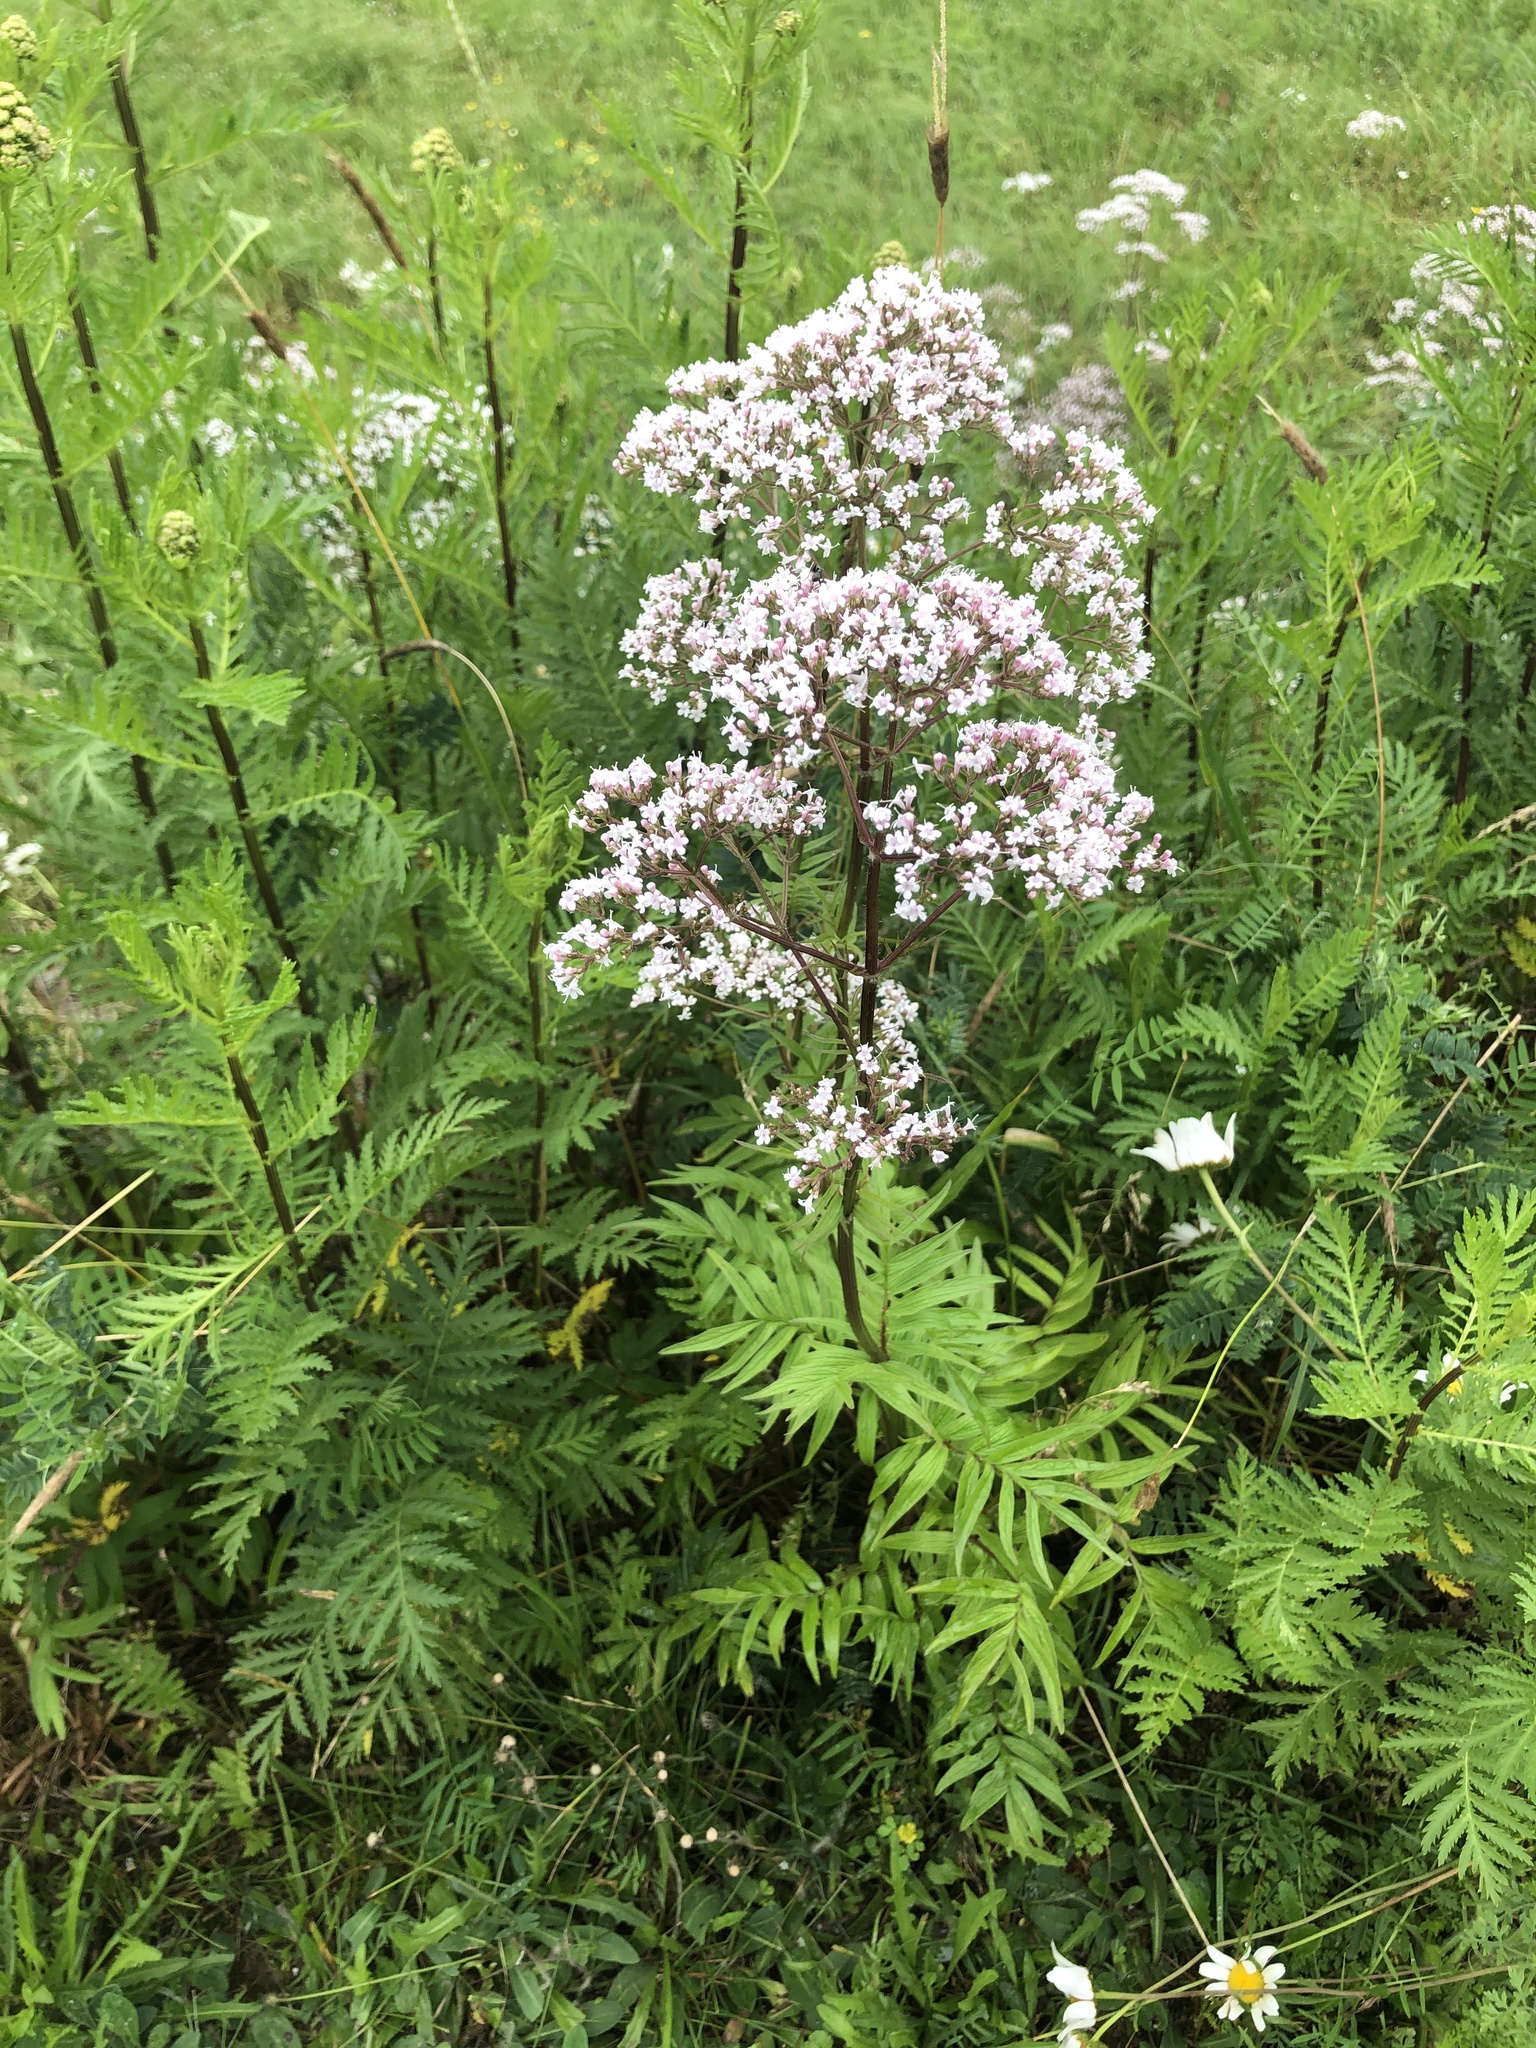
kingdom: Plantae
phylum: Tracheophyta
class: Magnoliopsida
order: Dipsacales
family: Caprifoliaceae
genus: Valeriana
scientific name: Valeriana officinalis
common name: Common valerian
